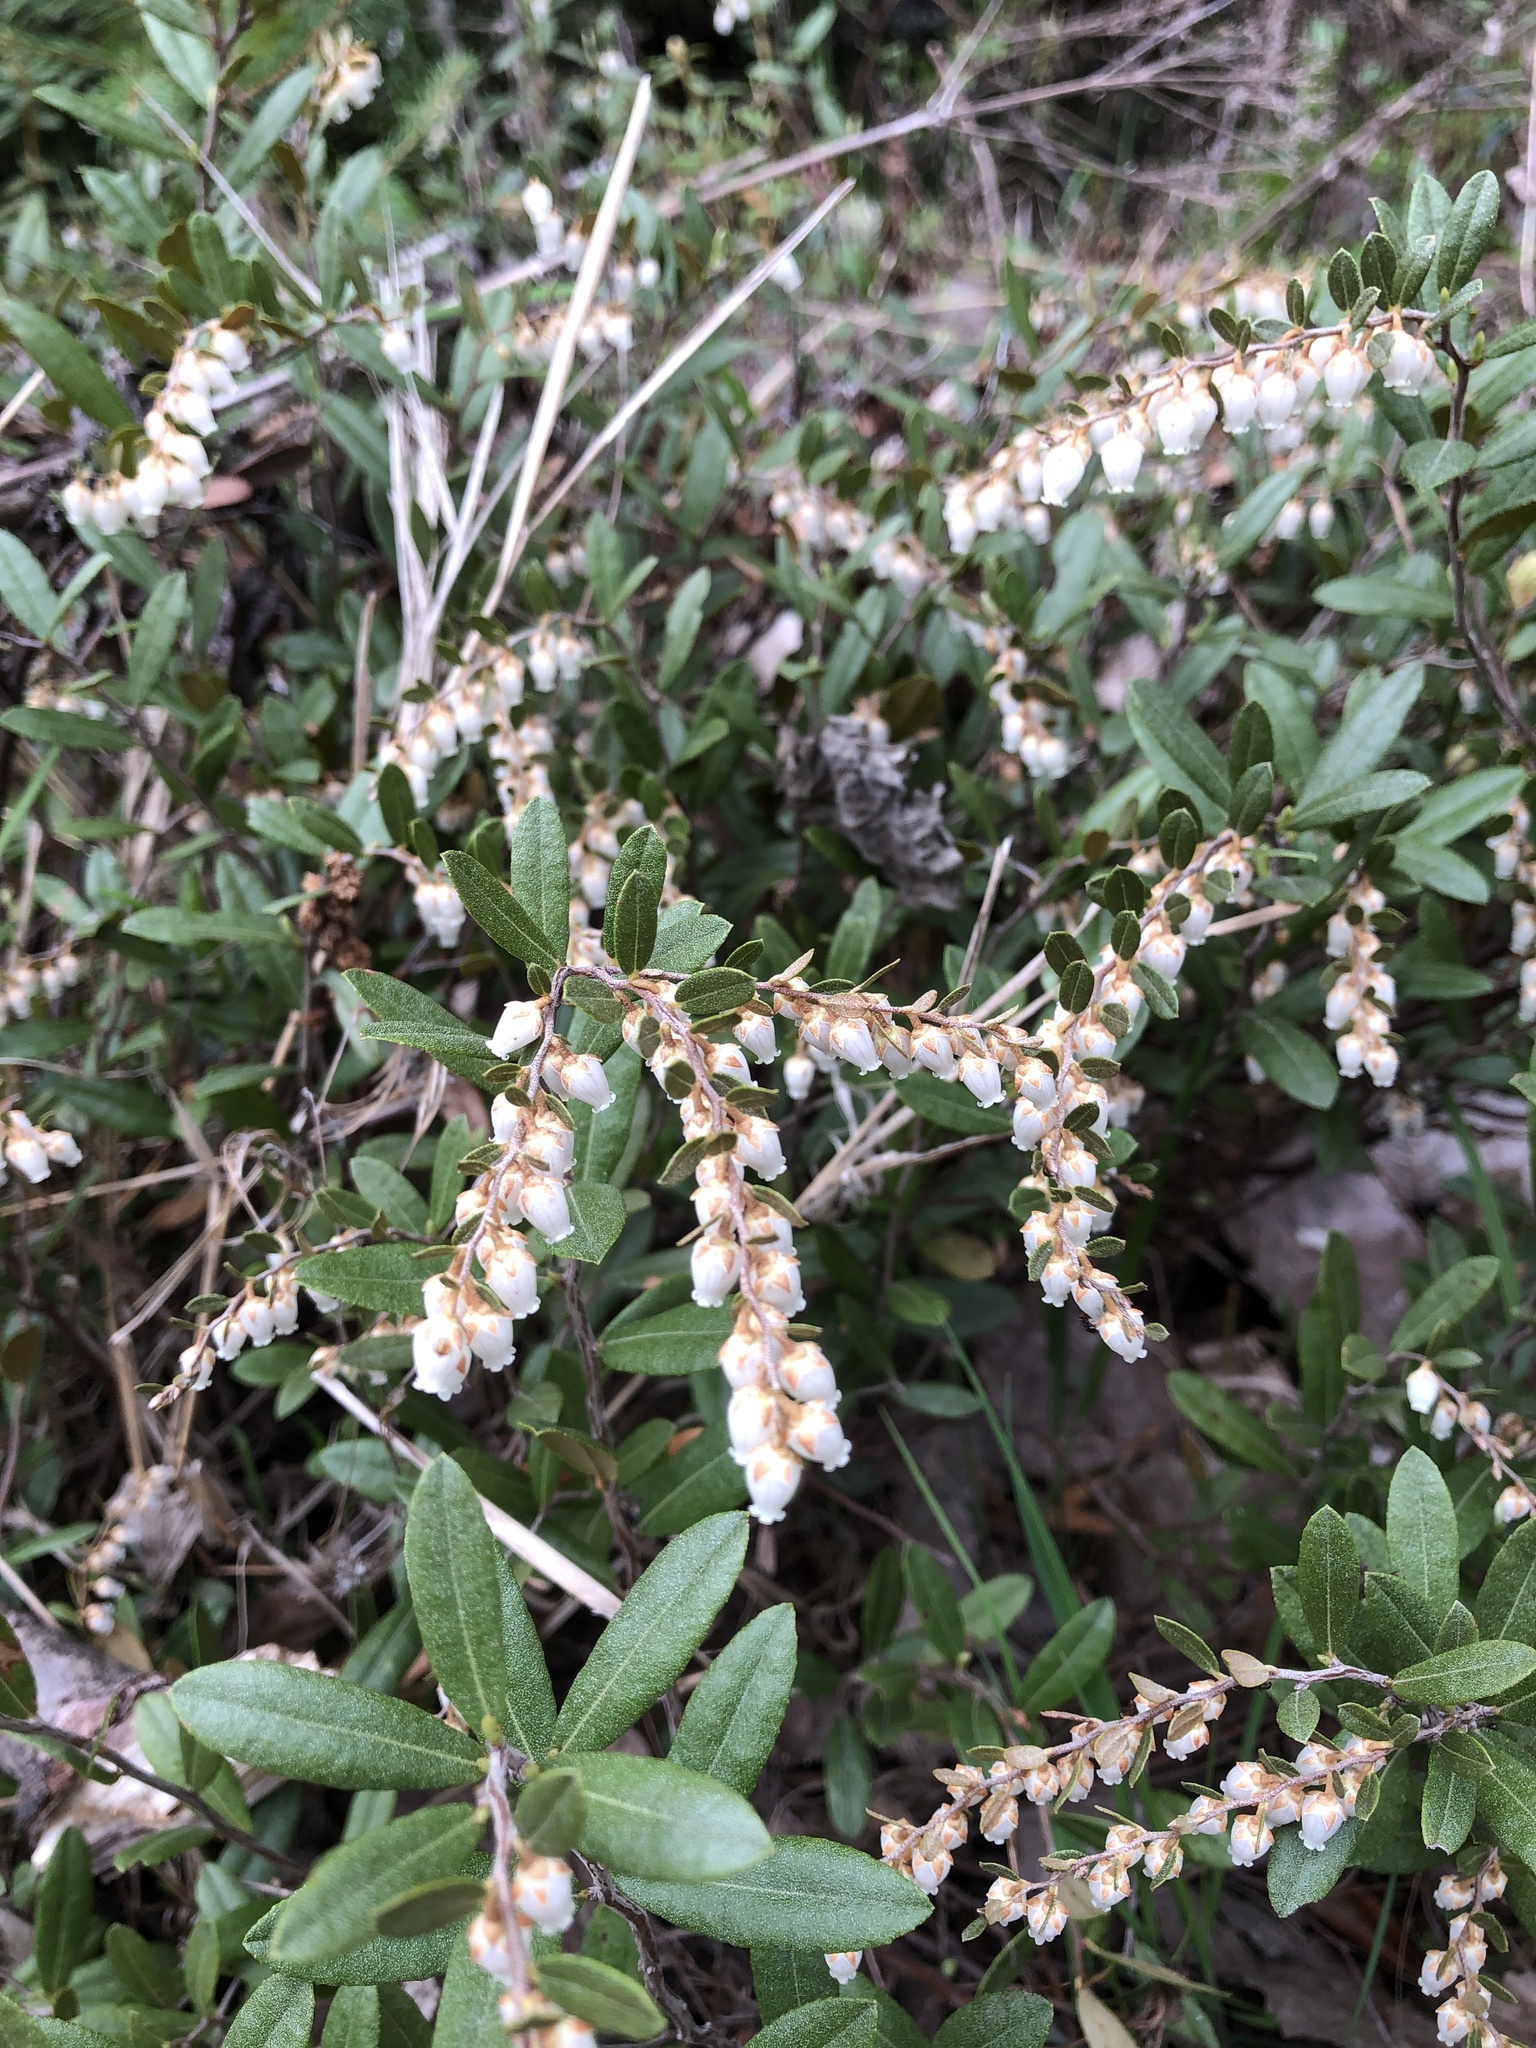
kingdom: Plantae
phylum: Tracheophyta
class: Magnoliopsida
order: Ericales
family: Ericaceae
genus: Chamaedaphne
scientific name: Chamaedaphne calyculata
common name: Leatherleaf
